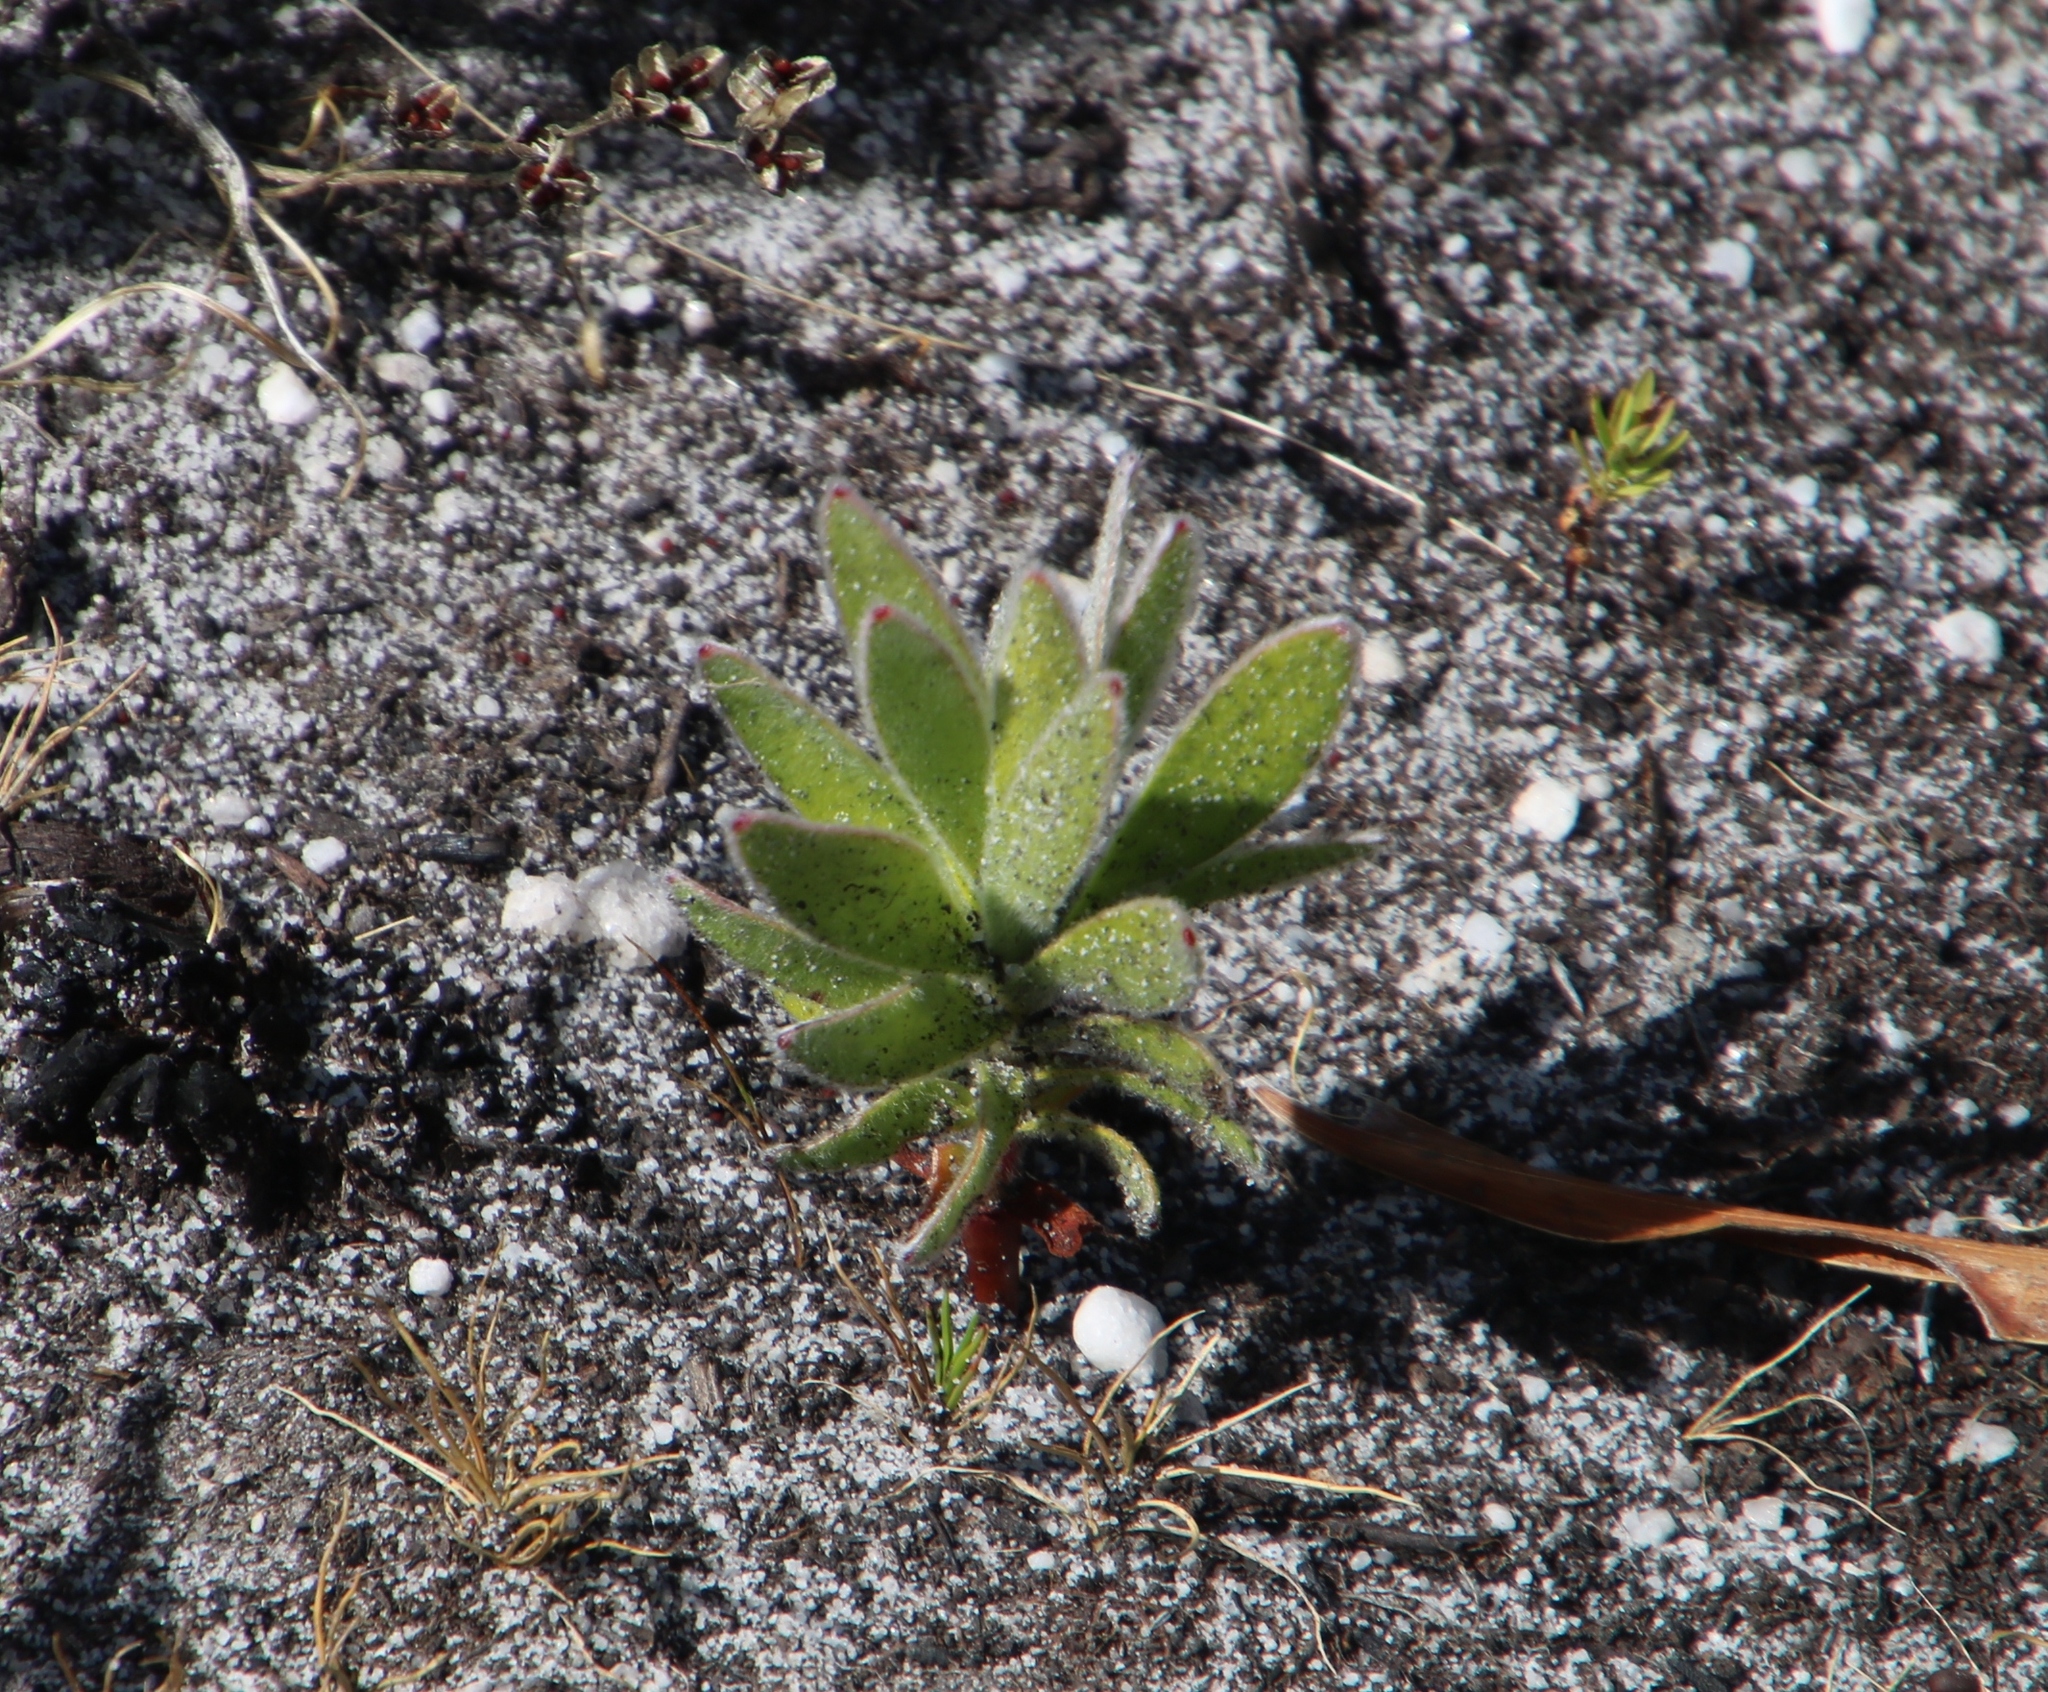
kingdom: Plantae
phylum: Tracheophyta
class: Magnoliopsida
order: Proteales
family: Proteaceae
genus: Mimetes
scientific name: Mimetes fimbriifolius
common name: Fringed bottlebrush
